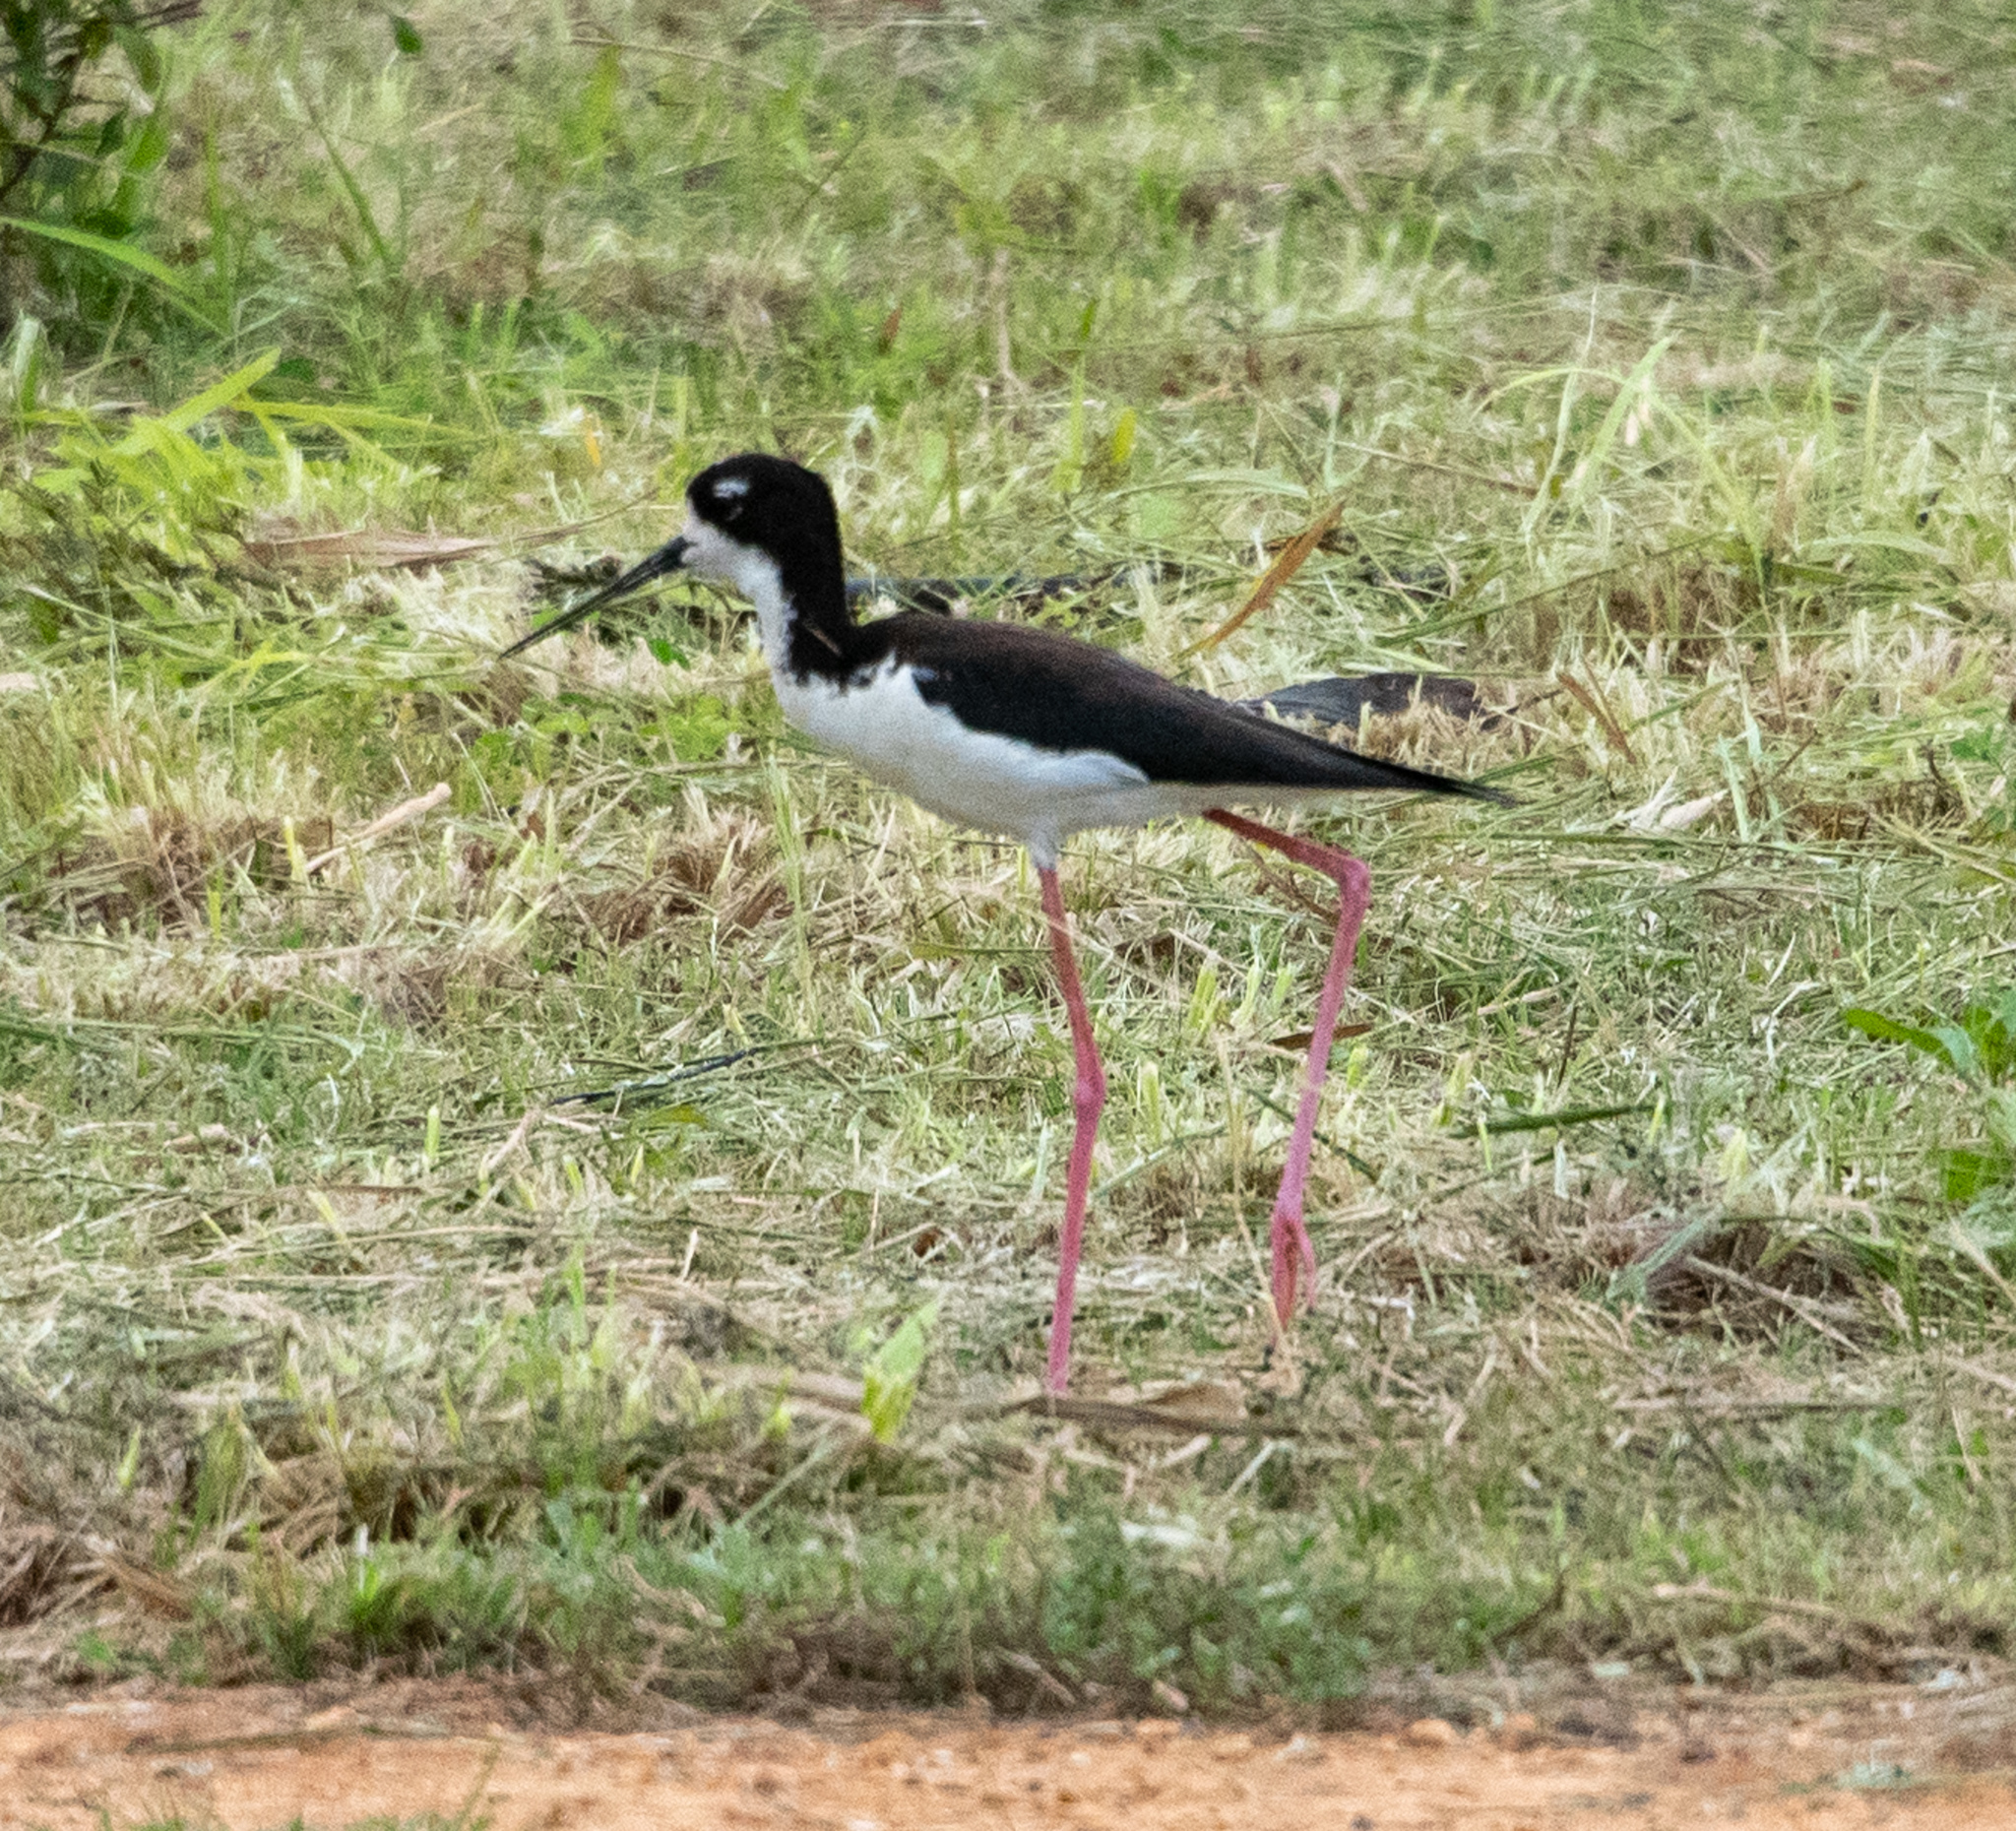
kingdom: Animalia
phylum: Chordata
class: Aves
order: Charadriiformes
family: Recurvirostridae
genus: Himantopus
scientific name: Himantopus mexicanus
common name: Black-necked stilt
